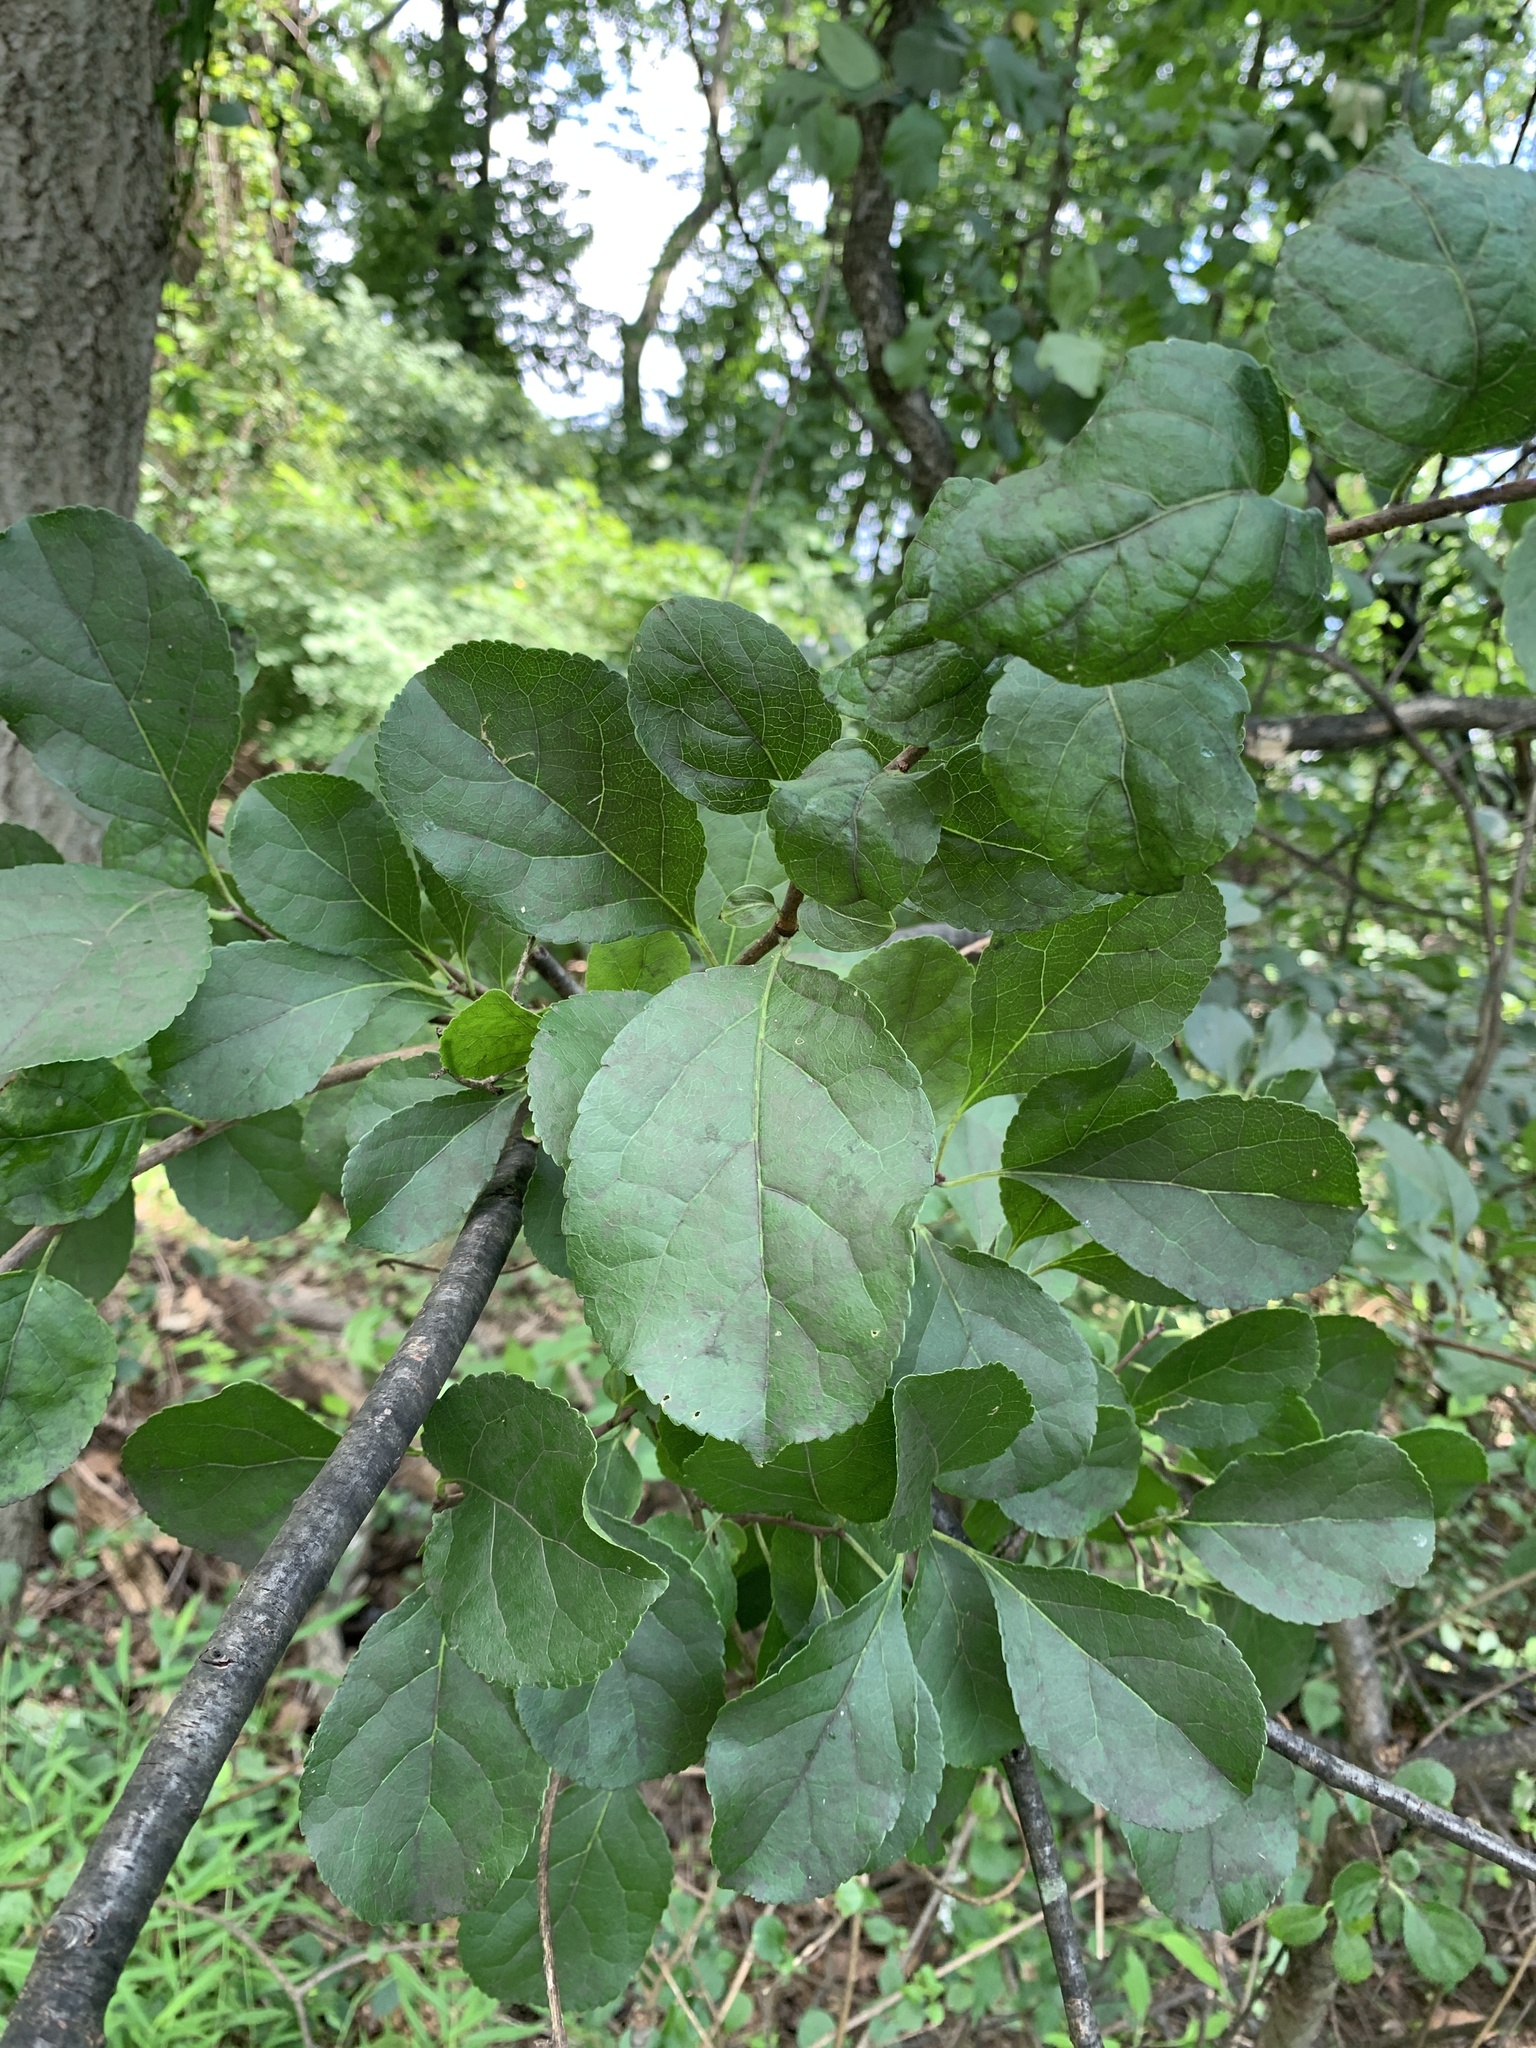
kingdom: Plantae
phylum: Tracheophyta
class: Magnoliopsida
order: Celastrales
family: Celastraceae
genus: Celastrus
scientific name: Celastrus orbiculatus
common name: Oriental bittersweet
